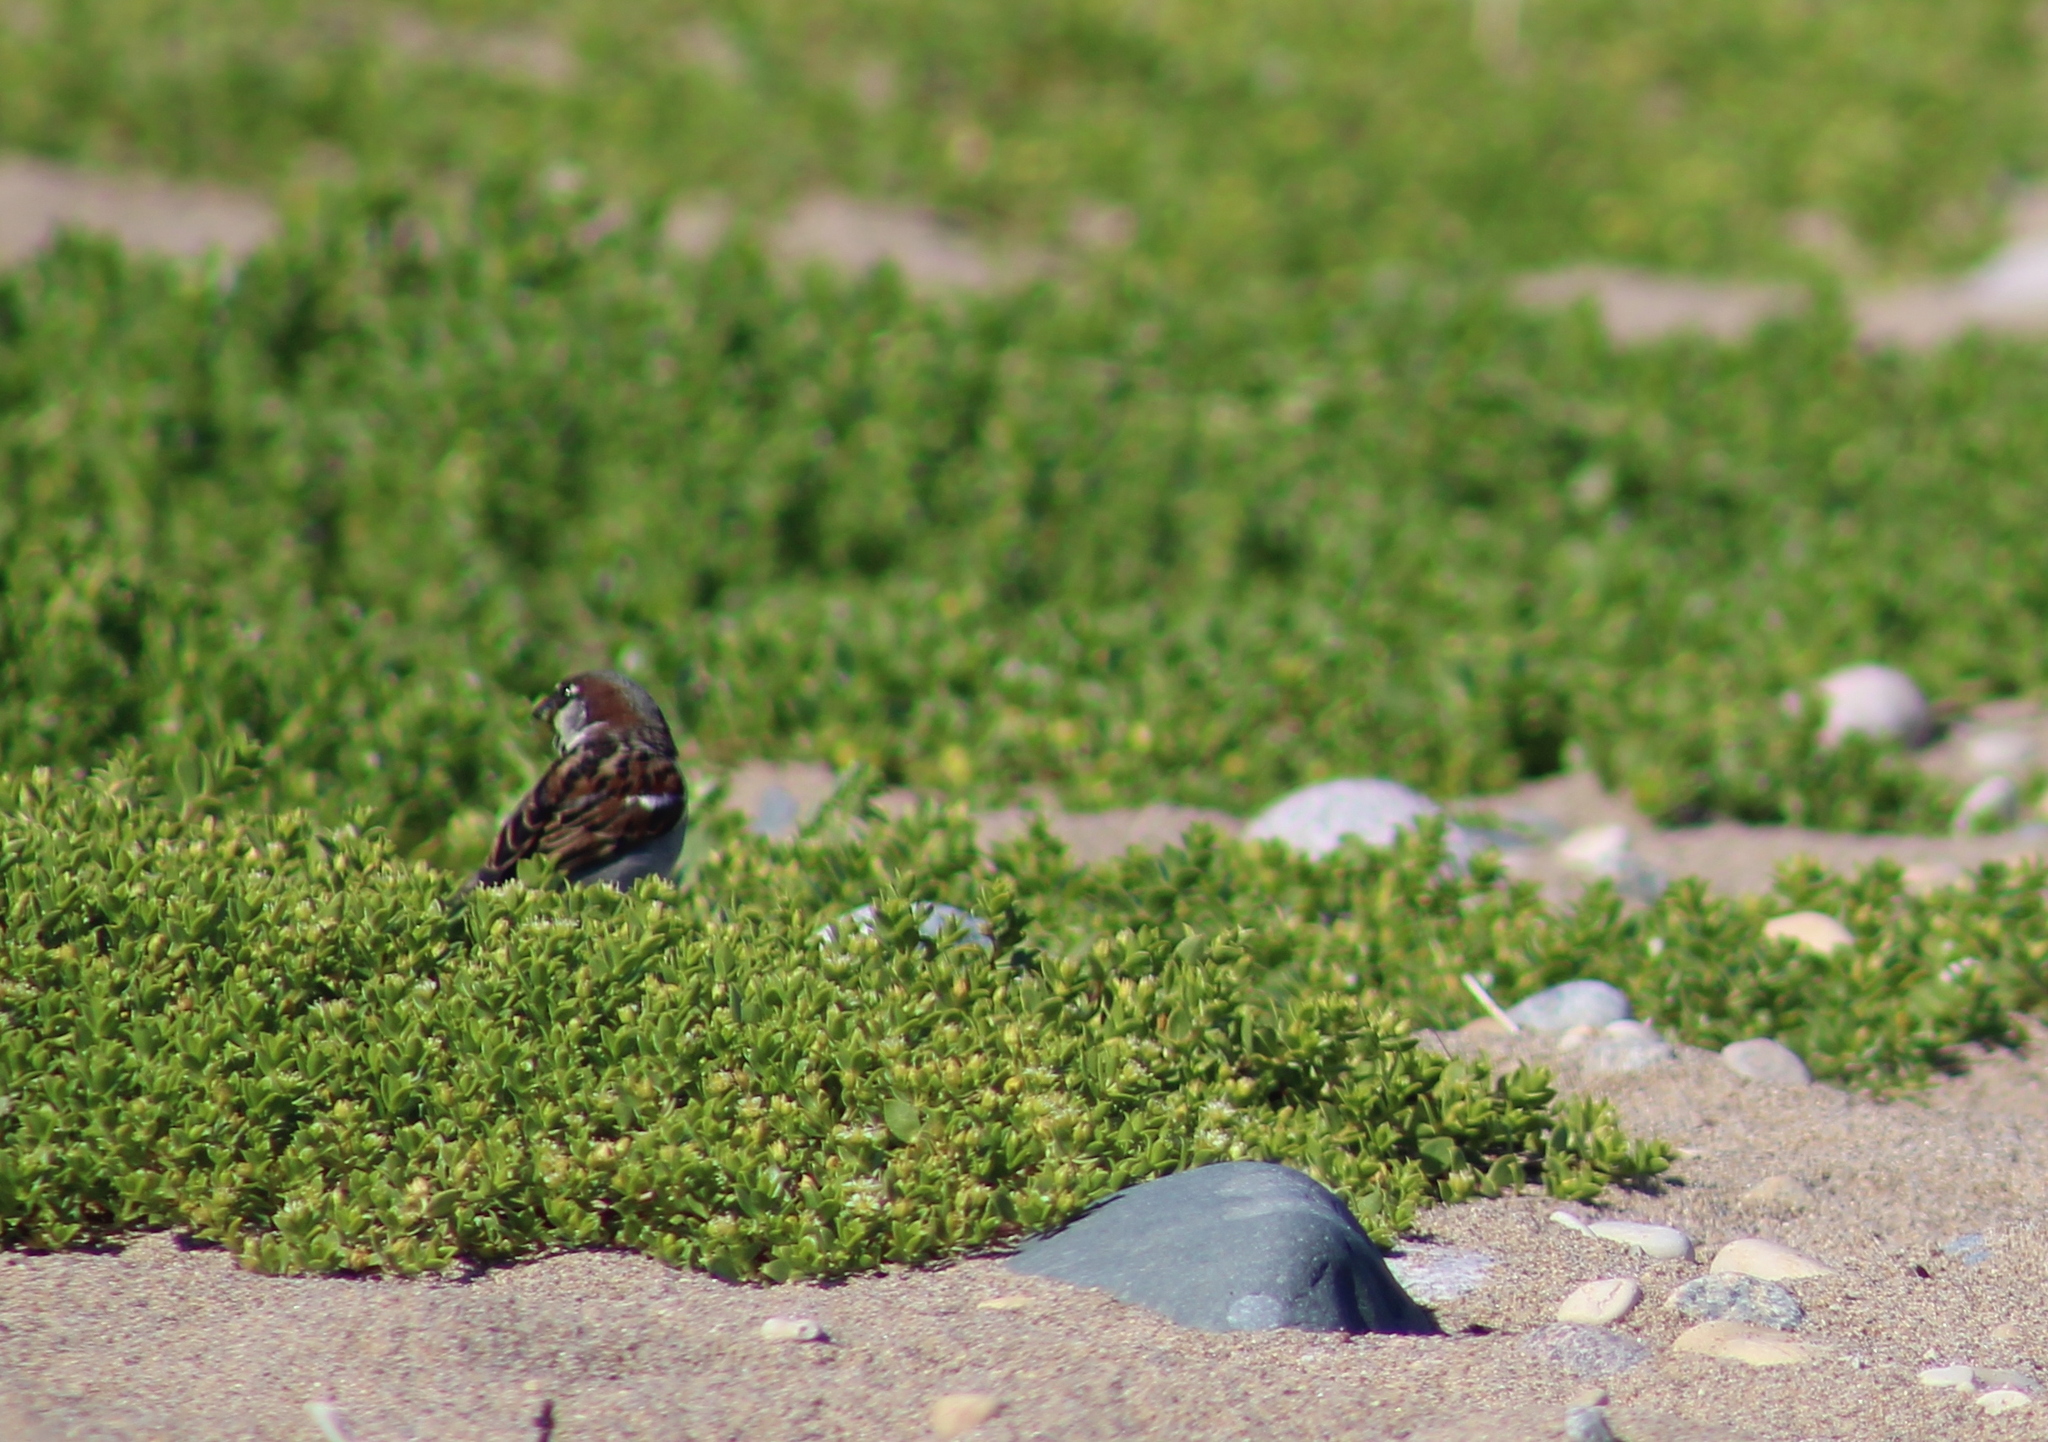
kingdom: Animalia
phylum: Chordata
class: Aves
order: Passeriformes
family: Passeridae
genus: Passer
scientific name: Passer domesticus
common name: House sparrow
